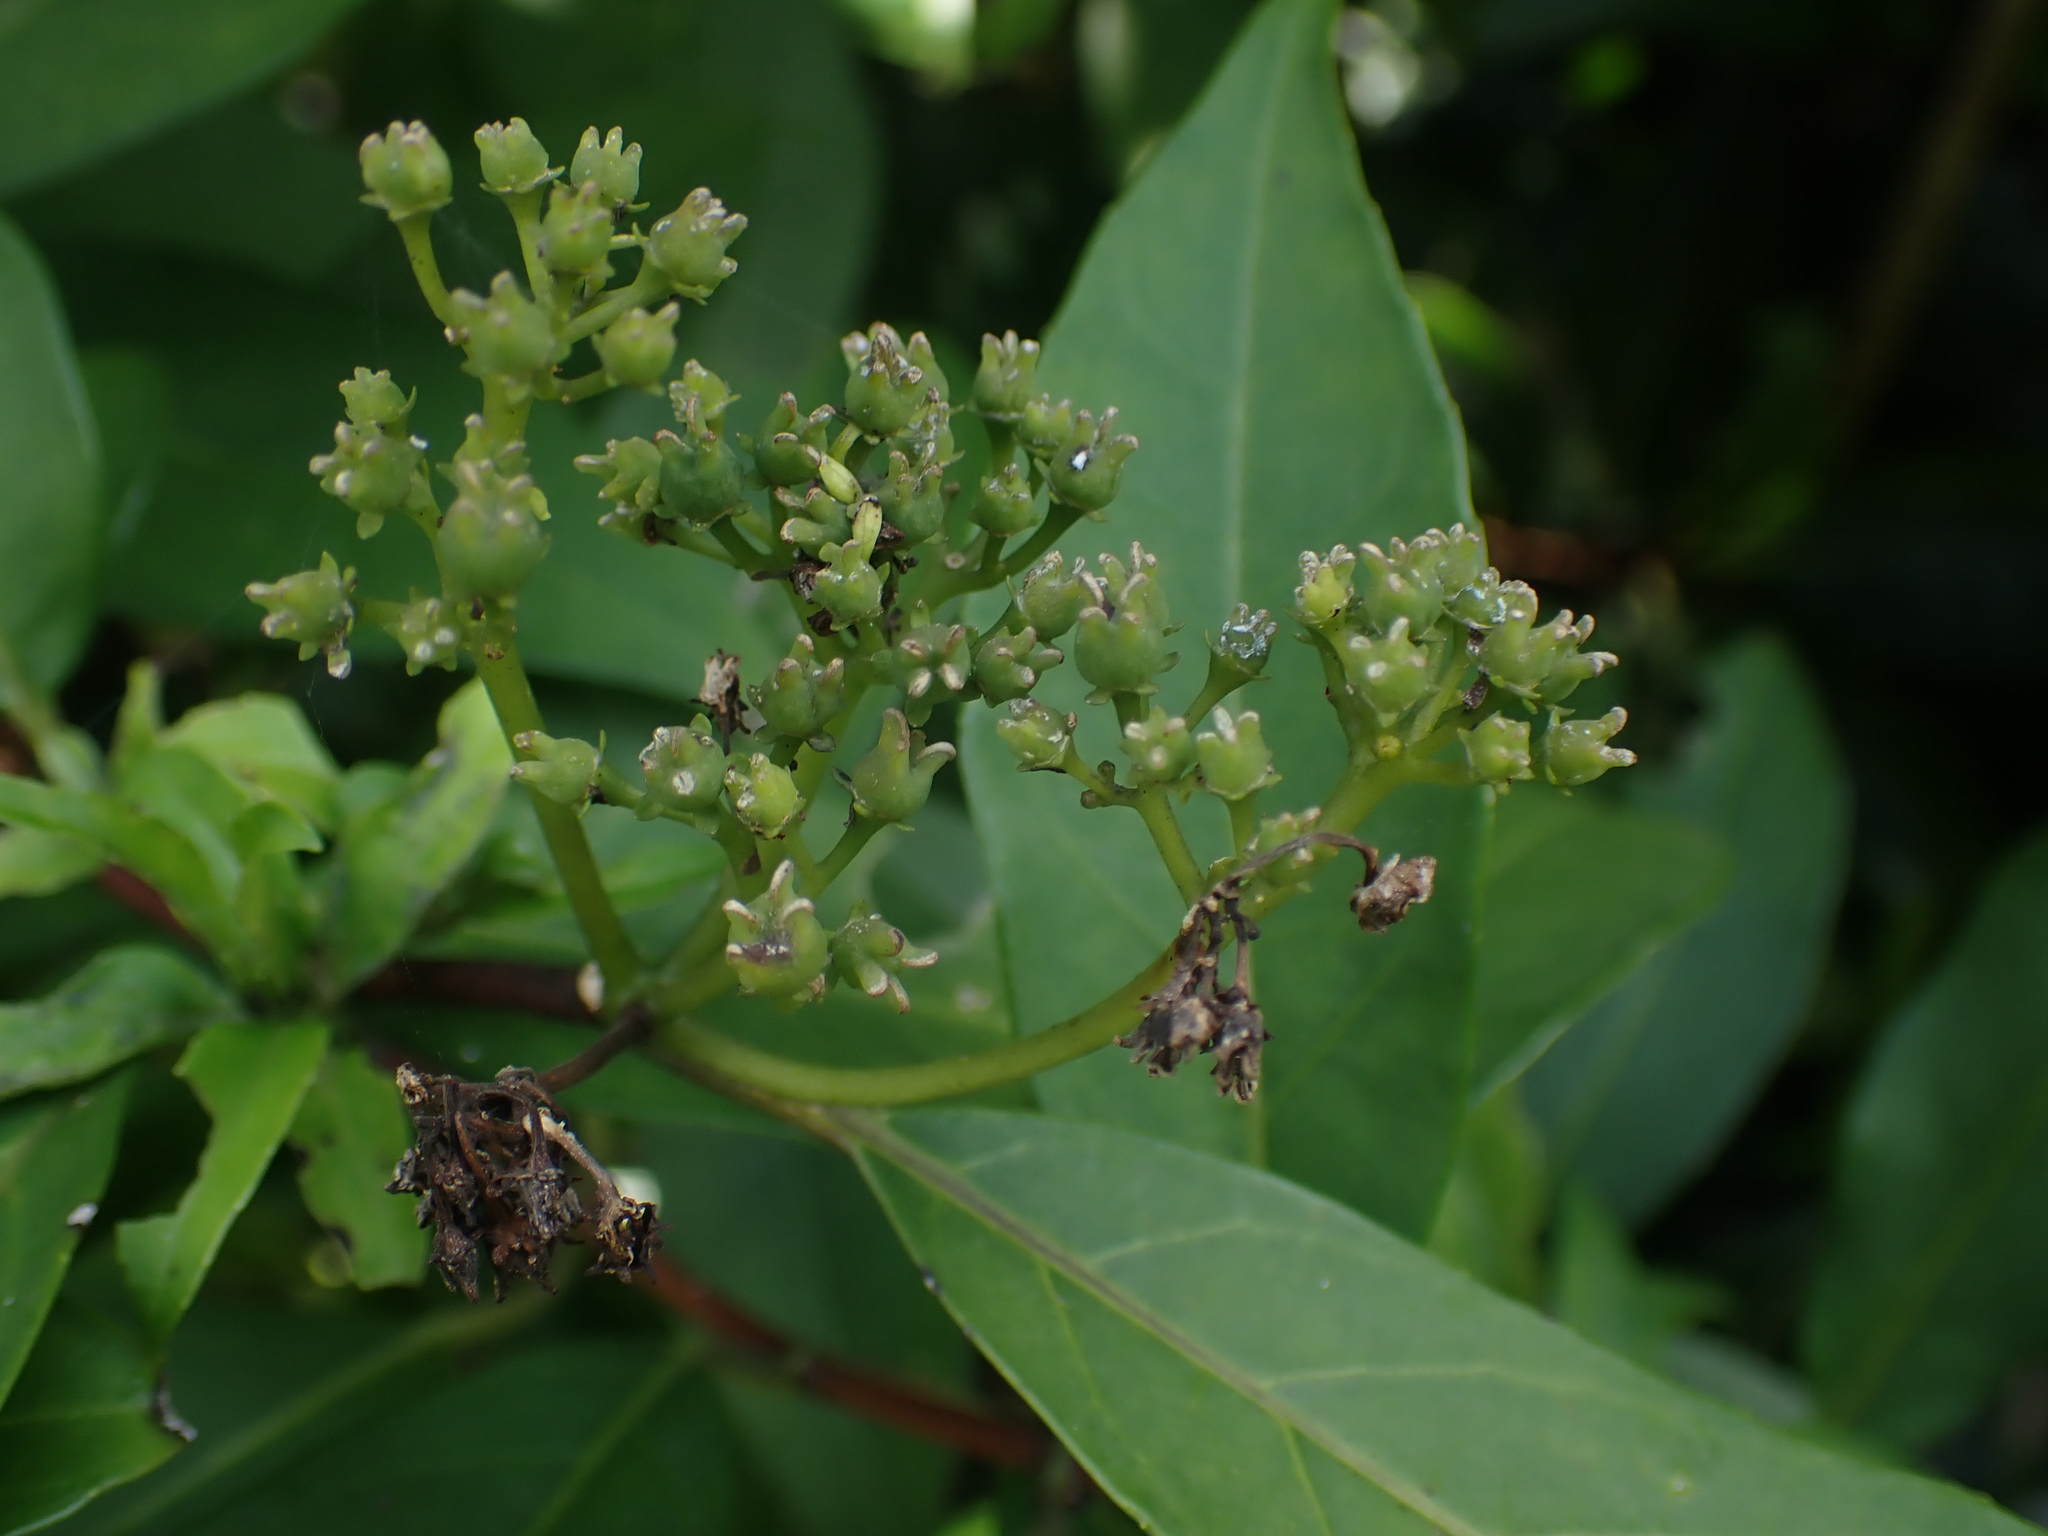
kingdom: Plantae
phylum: Tracheophyta
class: Magnoliopsida
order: Cornales
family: Hydrangeaceae
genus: Hydrangea
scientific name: Hydrangea chinensis
